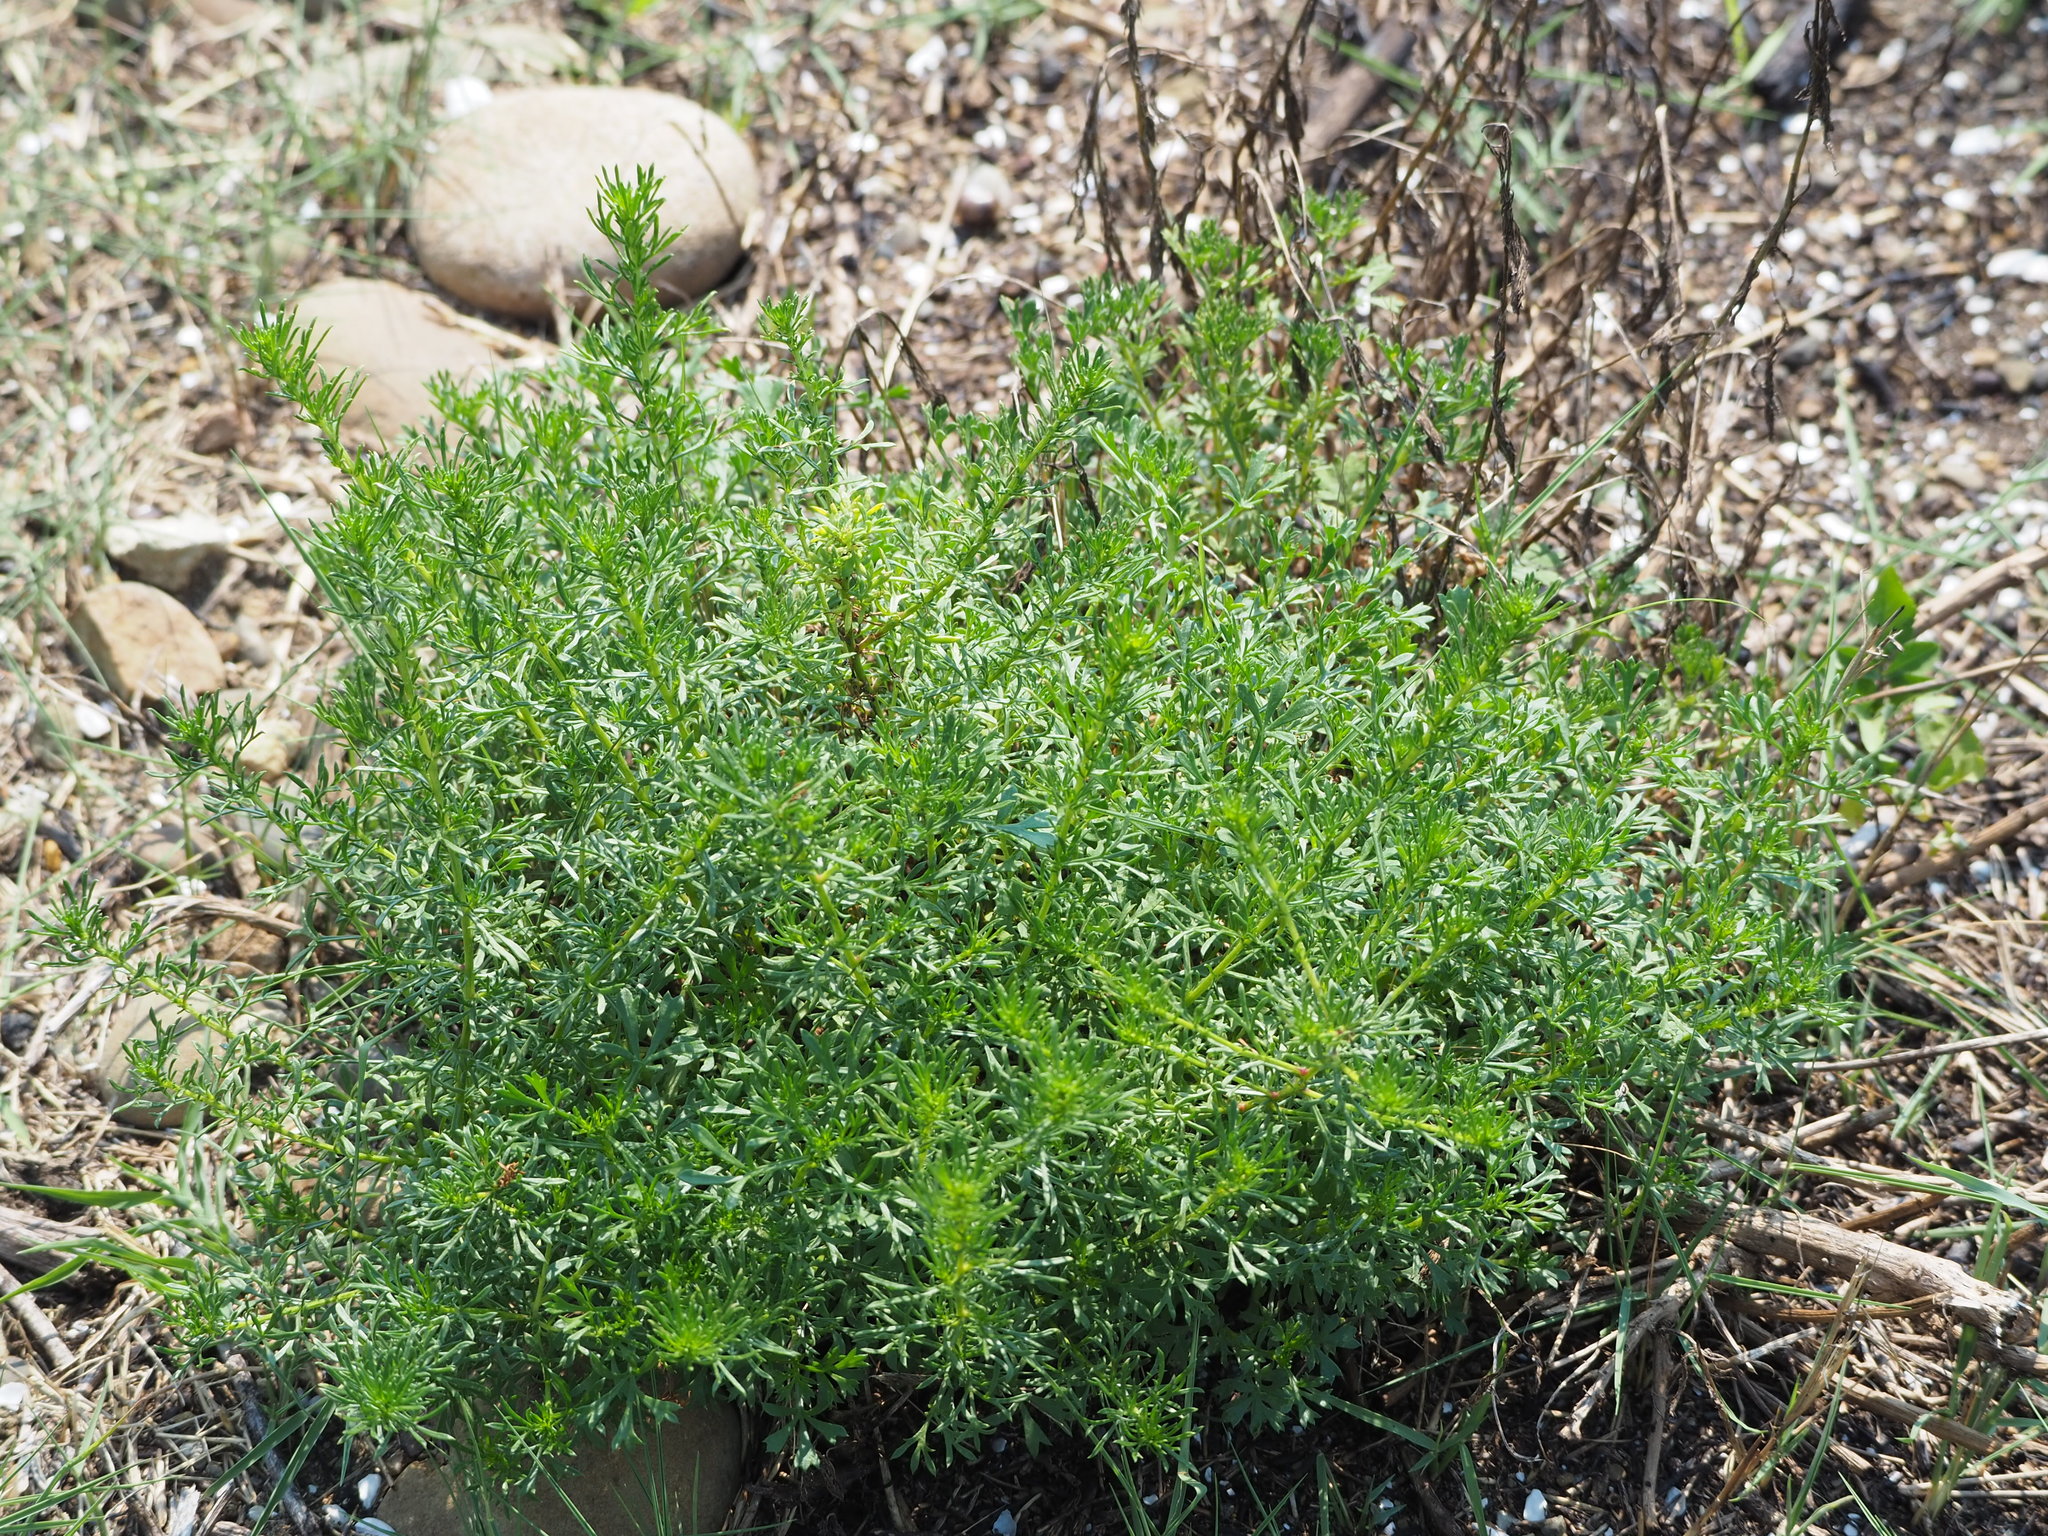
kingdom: Plantae
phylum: Tracheophyta
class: Magnoliopsida
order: Asterales
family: Asteraceae
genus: Artemisia
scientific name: Artemisia capillaris
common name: Yin-chen wormwood
